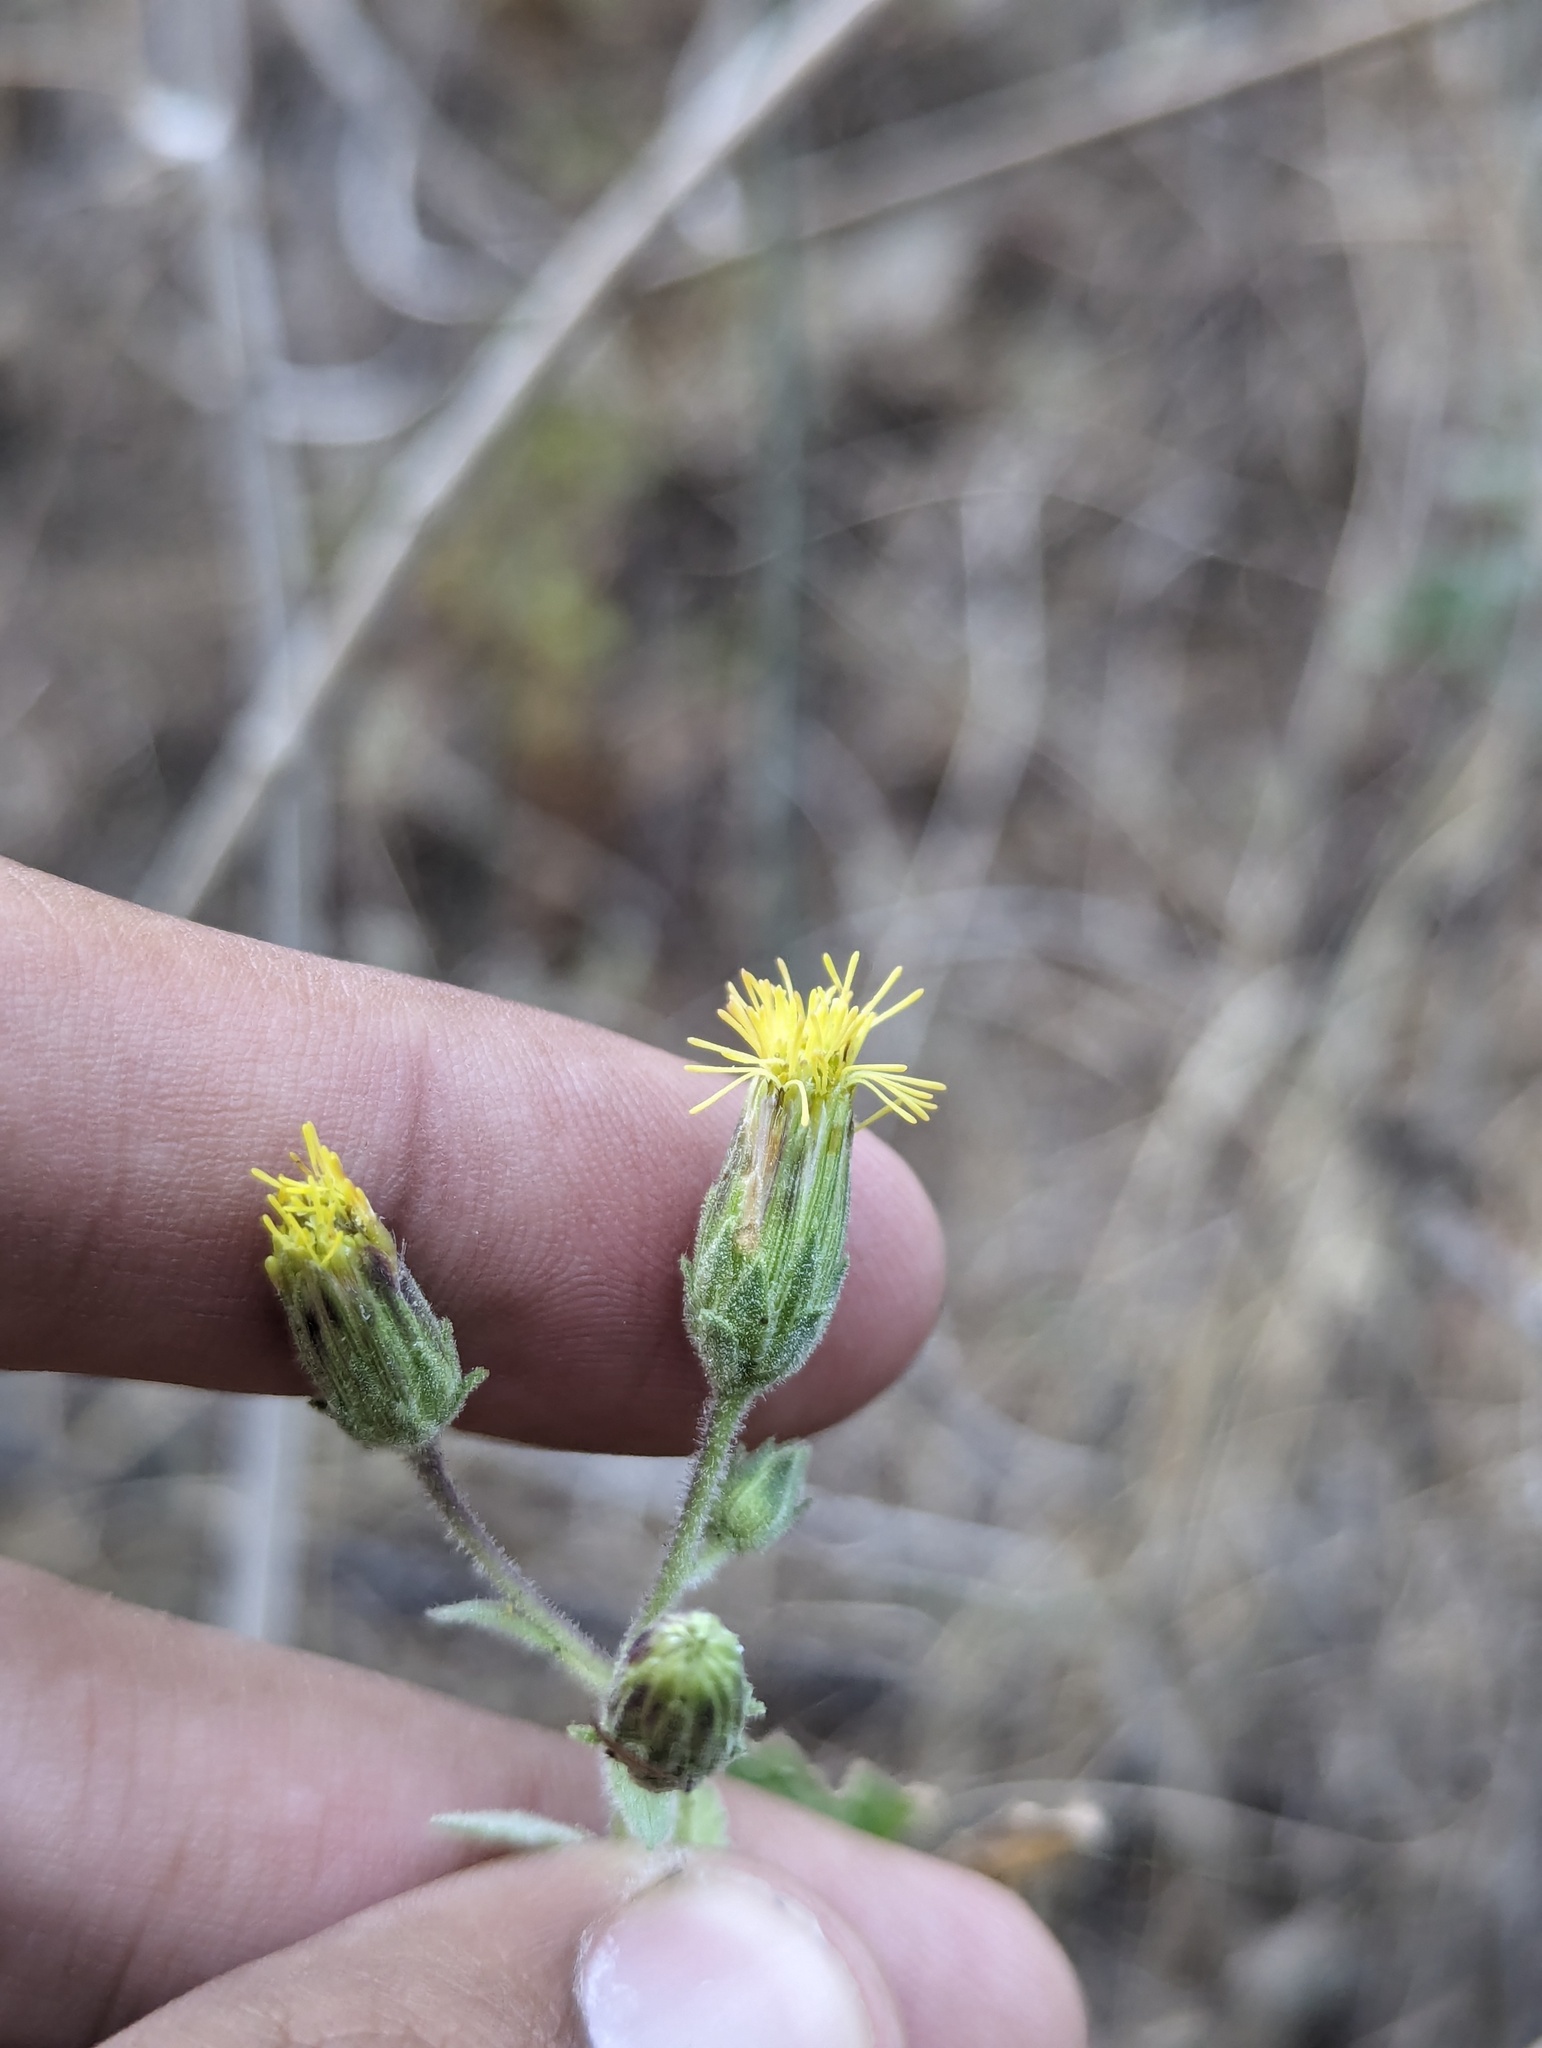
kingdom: Plantae
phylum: Tracheophyta
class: Magnoliopsida
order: Asterales
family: Asteraceae
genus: Brickellia
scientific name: Brickellia peninsularis
